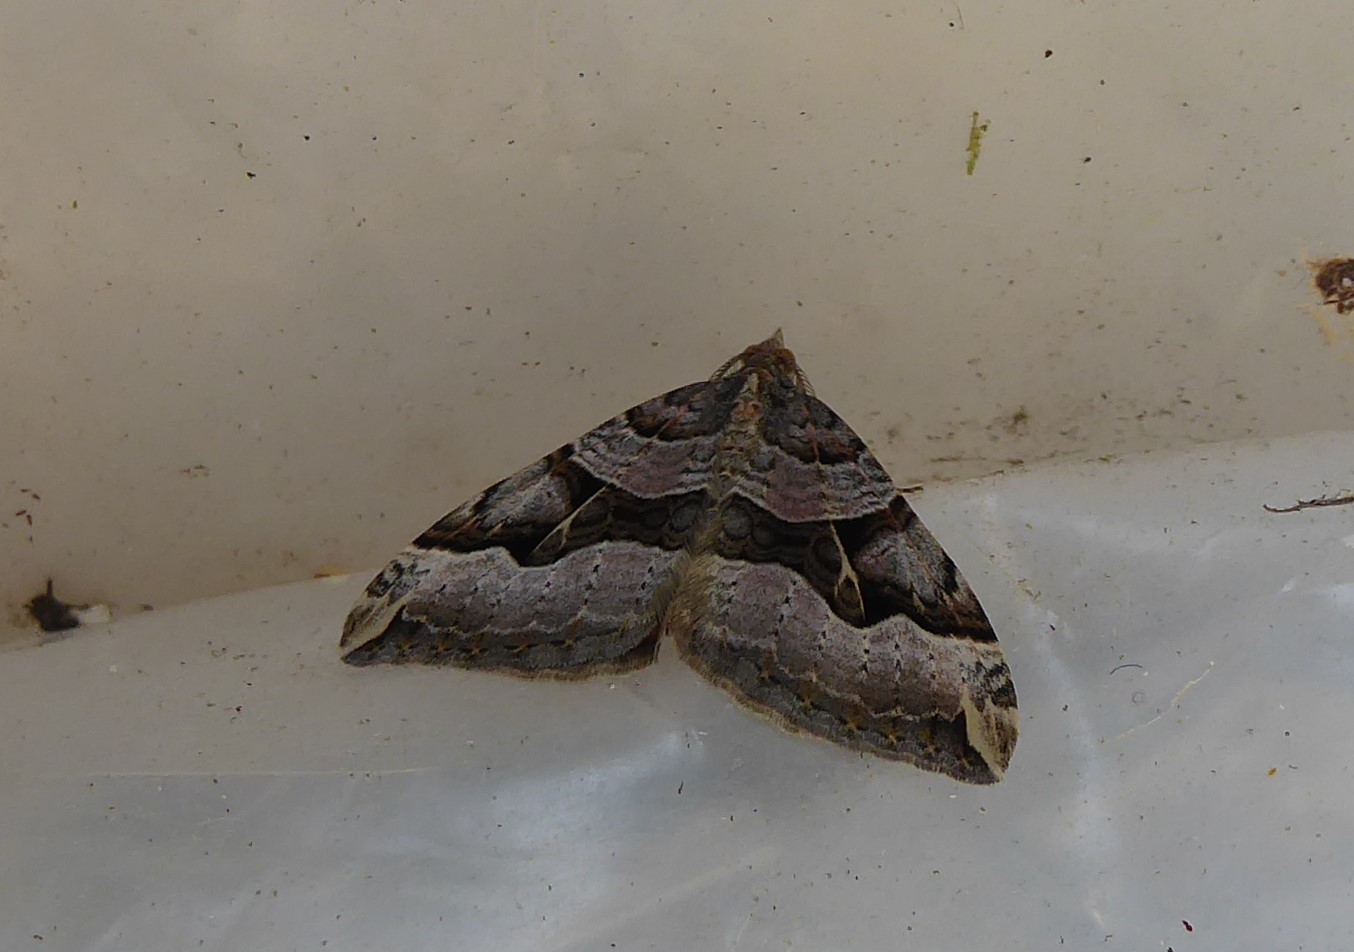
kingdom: Animalia
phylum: Arthropoda
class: Insecta
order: Lepidoptera
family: Geometridae
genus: Xanthorhoe
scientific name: Xanthorhoe semifissata
